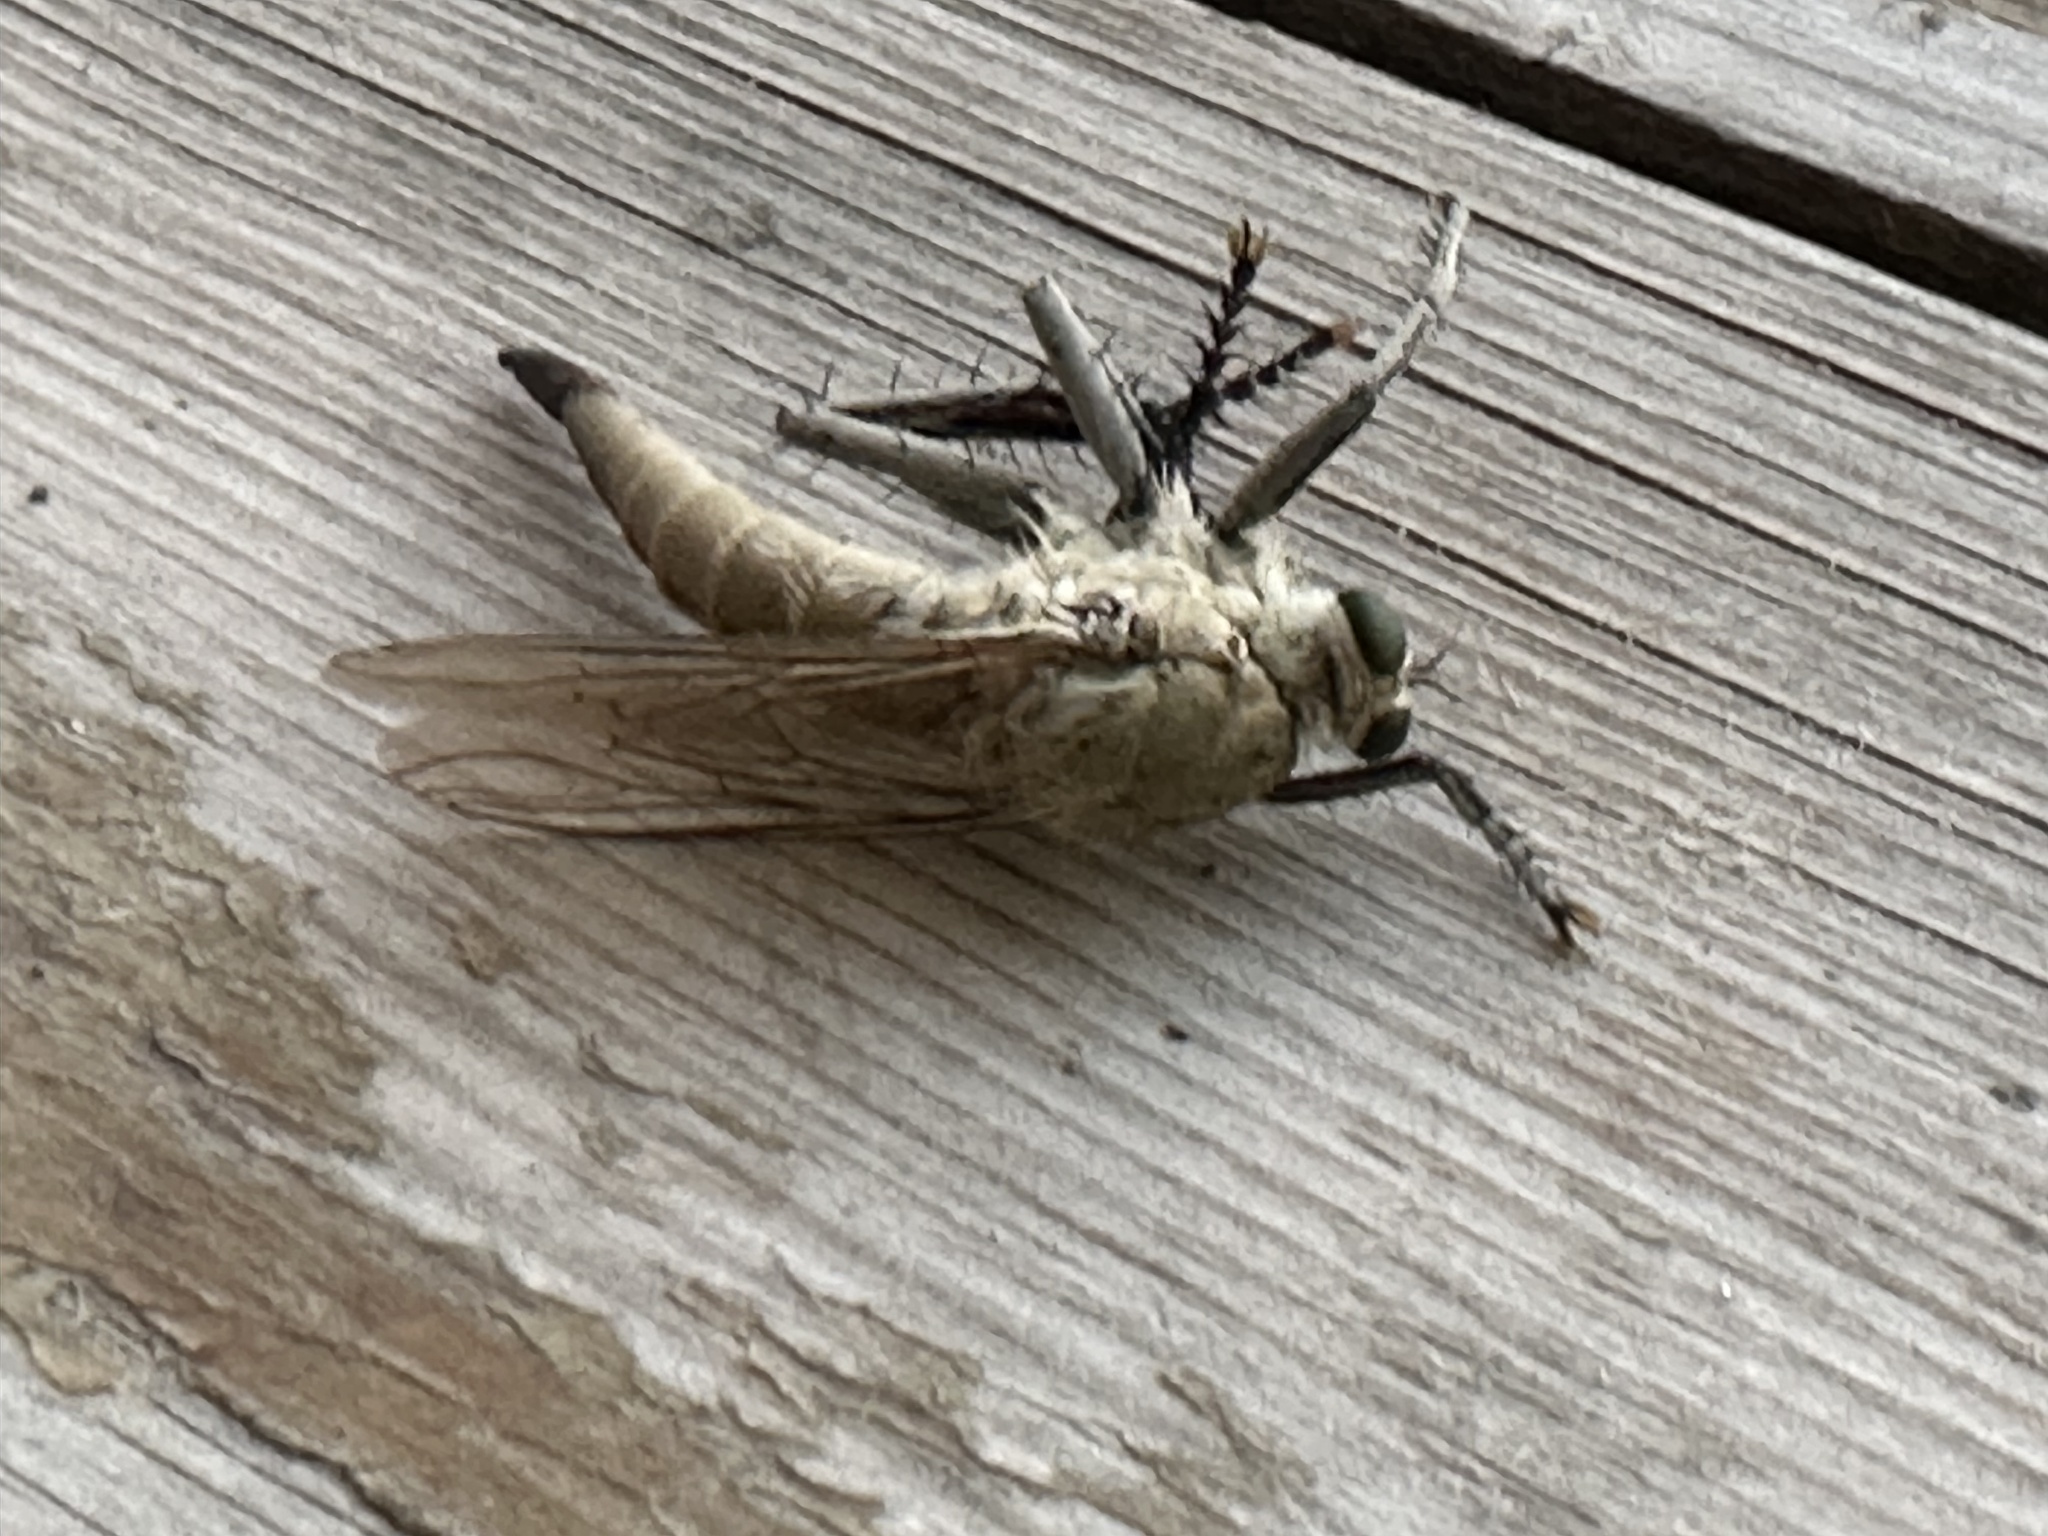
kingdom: Animalia
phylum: Arthropoda
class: Insecta
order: Diptera
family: Asilidae
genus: Satanas
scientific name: Satanas gigas
